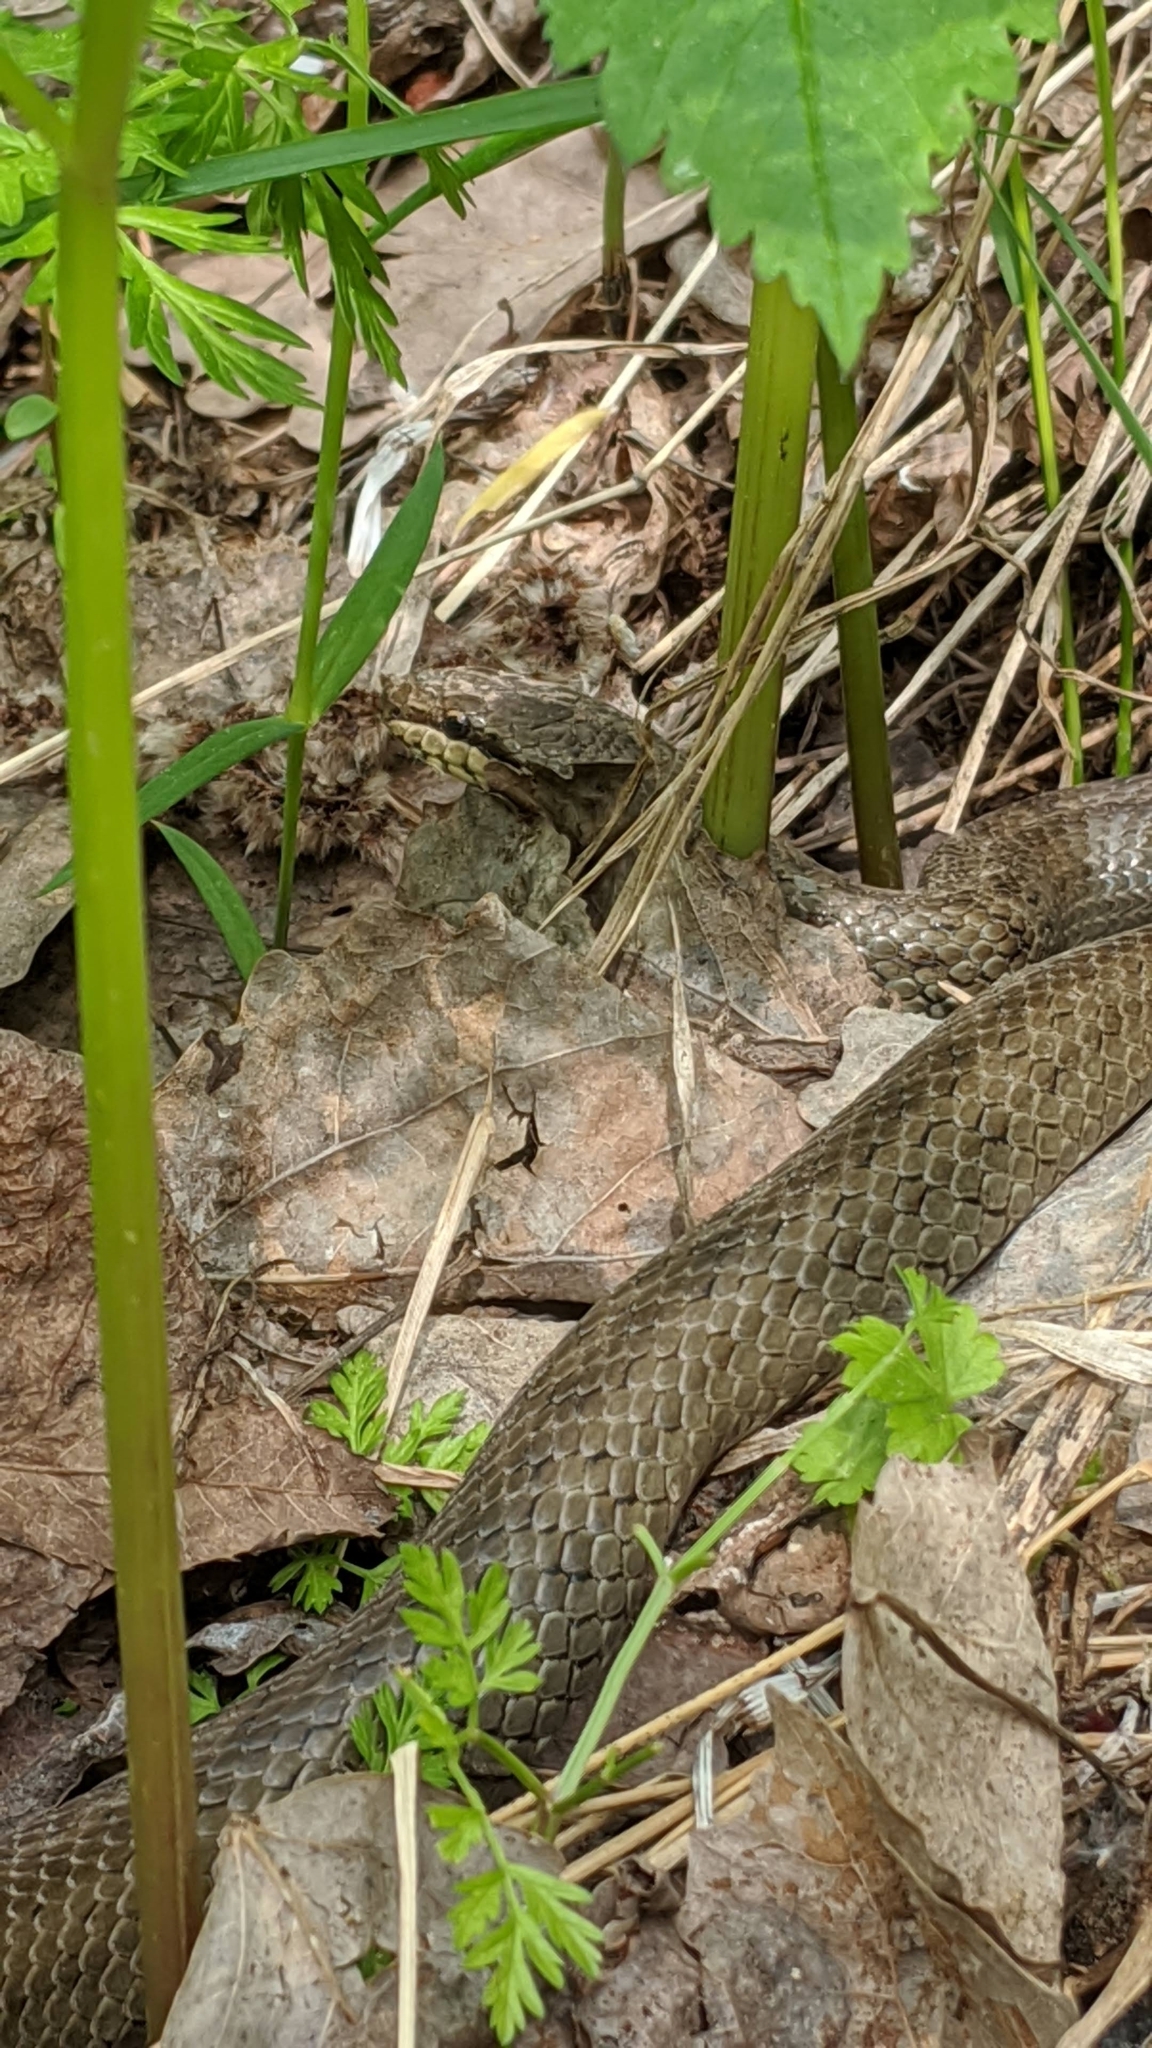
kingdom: Animalia
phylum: Chordata
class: Squamata
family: Colubridae
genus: Coronella
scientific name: Coronella austriaca
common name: Smooth snake
